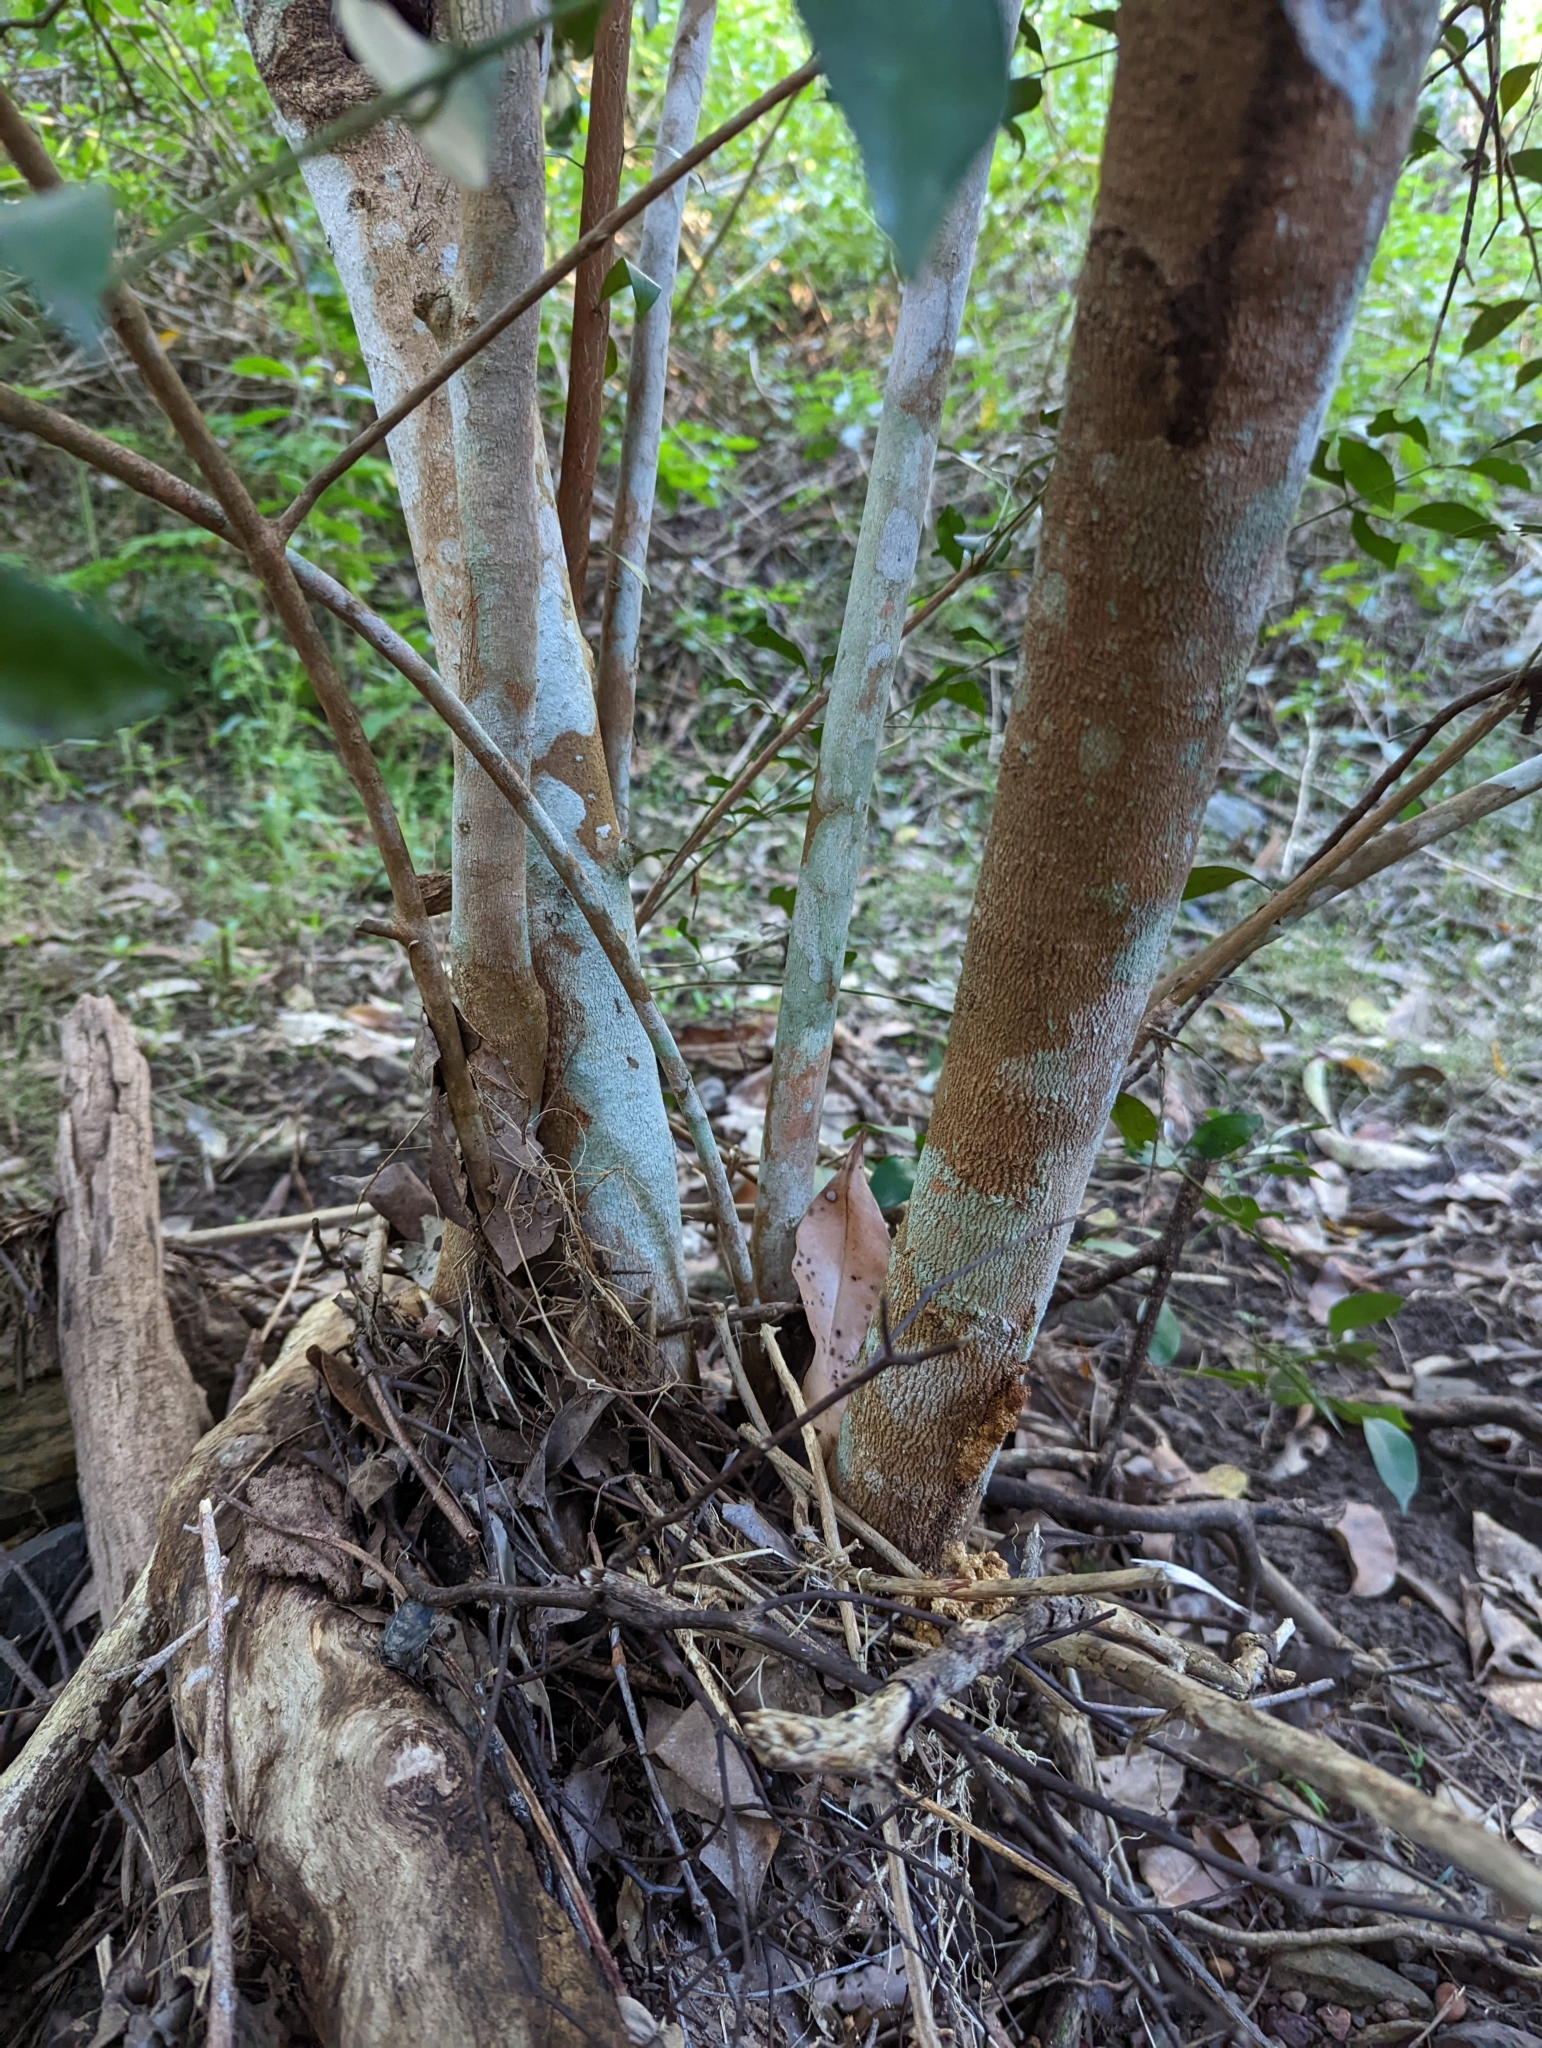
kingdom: Plantae
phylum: Tracheophyta
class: Magnoliopsida
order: Myrtales
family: Myrtaceae
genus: Syzygium
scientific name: Syzygium smithii
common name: Lilly-pilly
